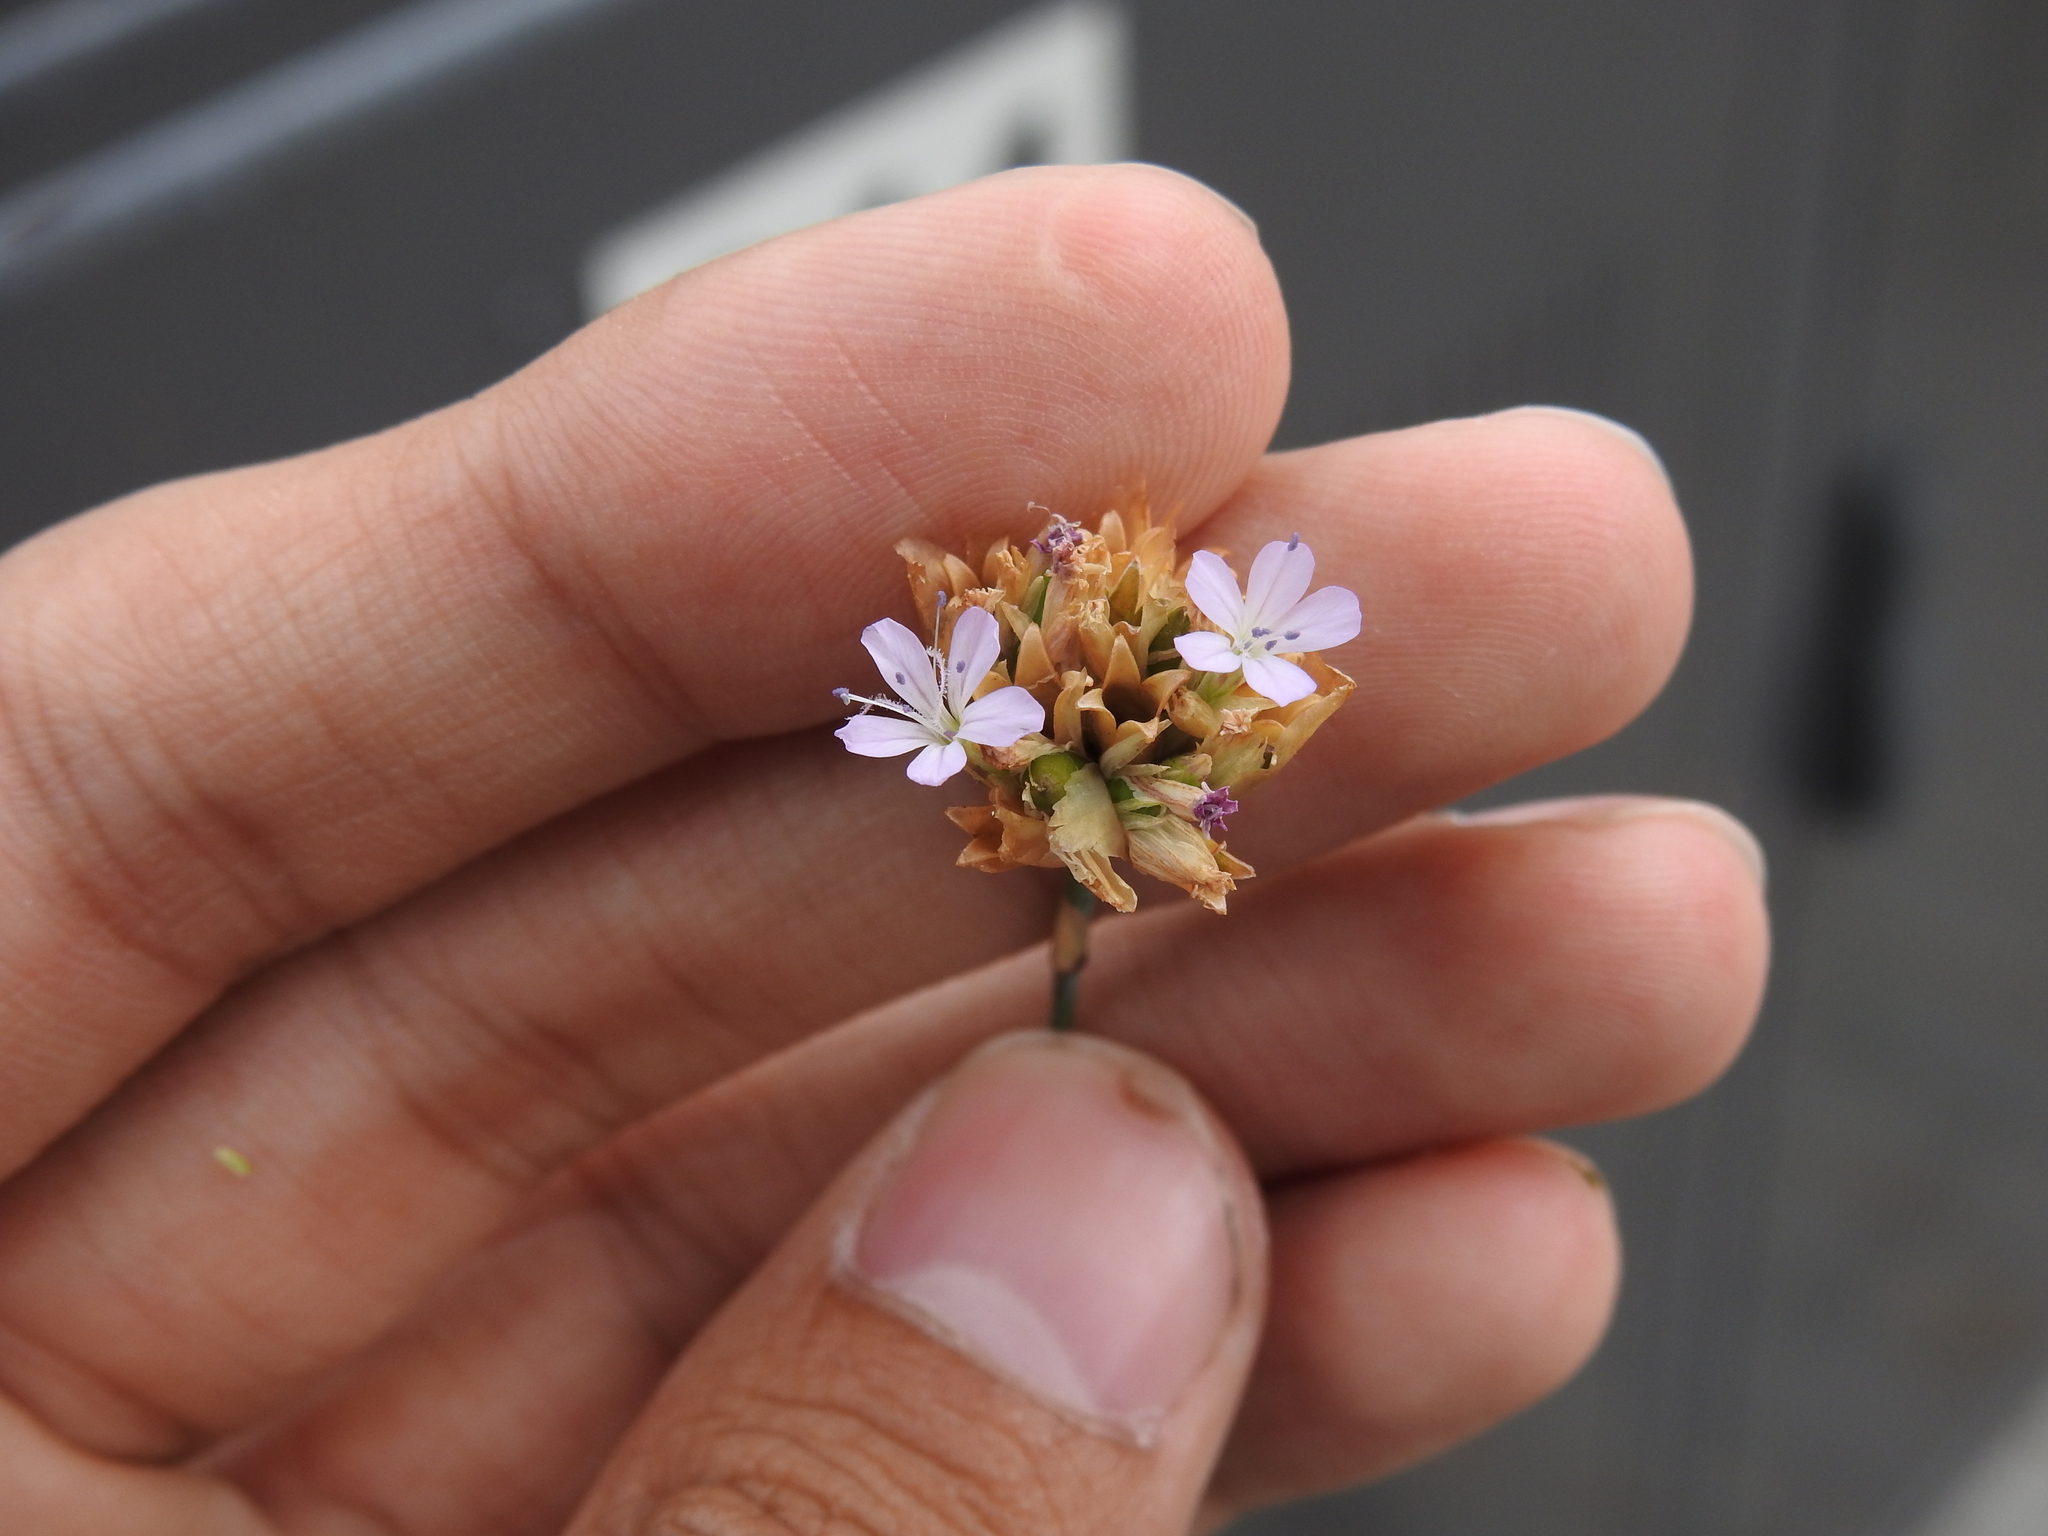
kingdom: Plantae
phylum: Tracheophyta
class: Magnoliopsida
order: Caryophyllales
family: Caryophyllaceae
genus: Petrorhagia
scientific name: Petrorhagia prolifera
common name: Proliferous pink
